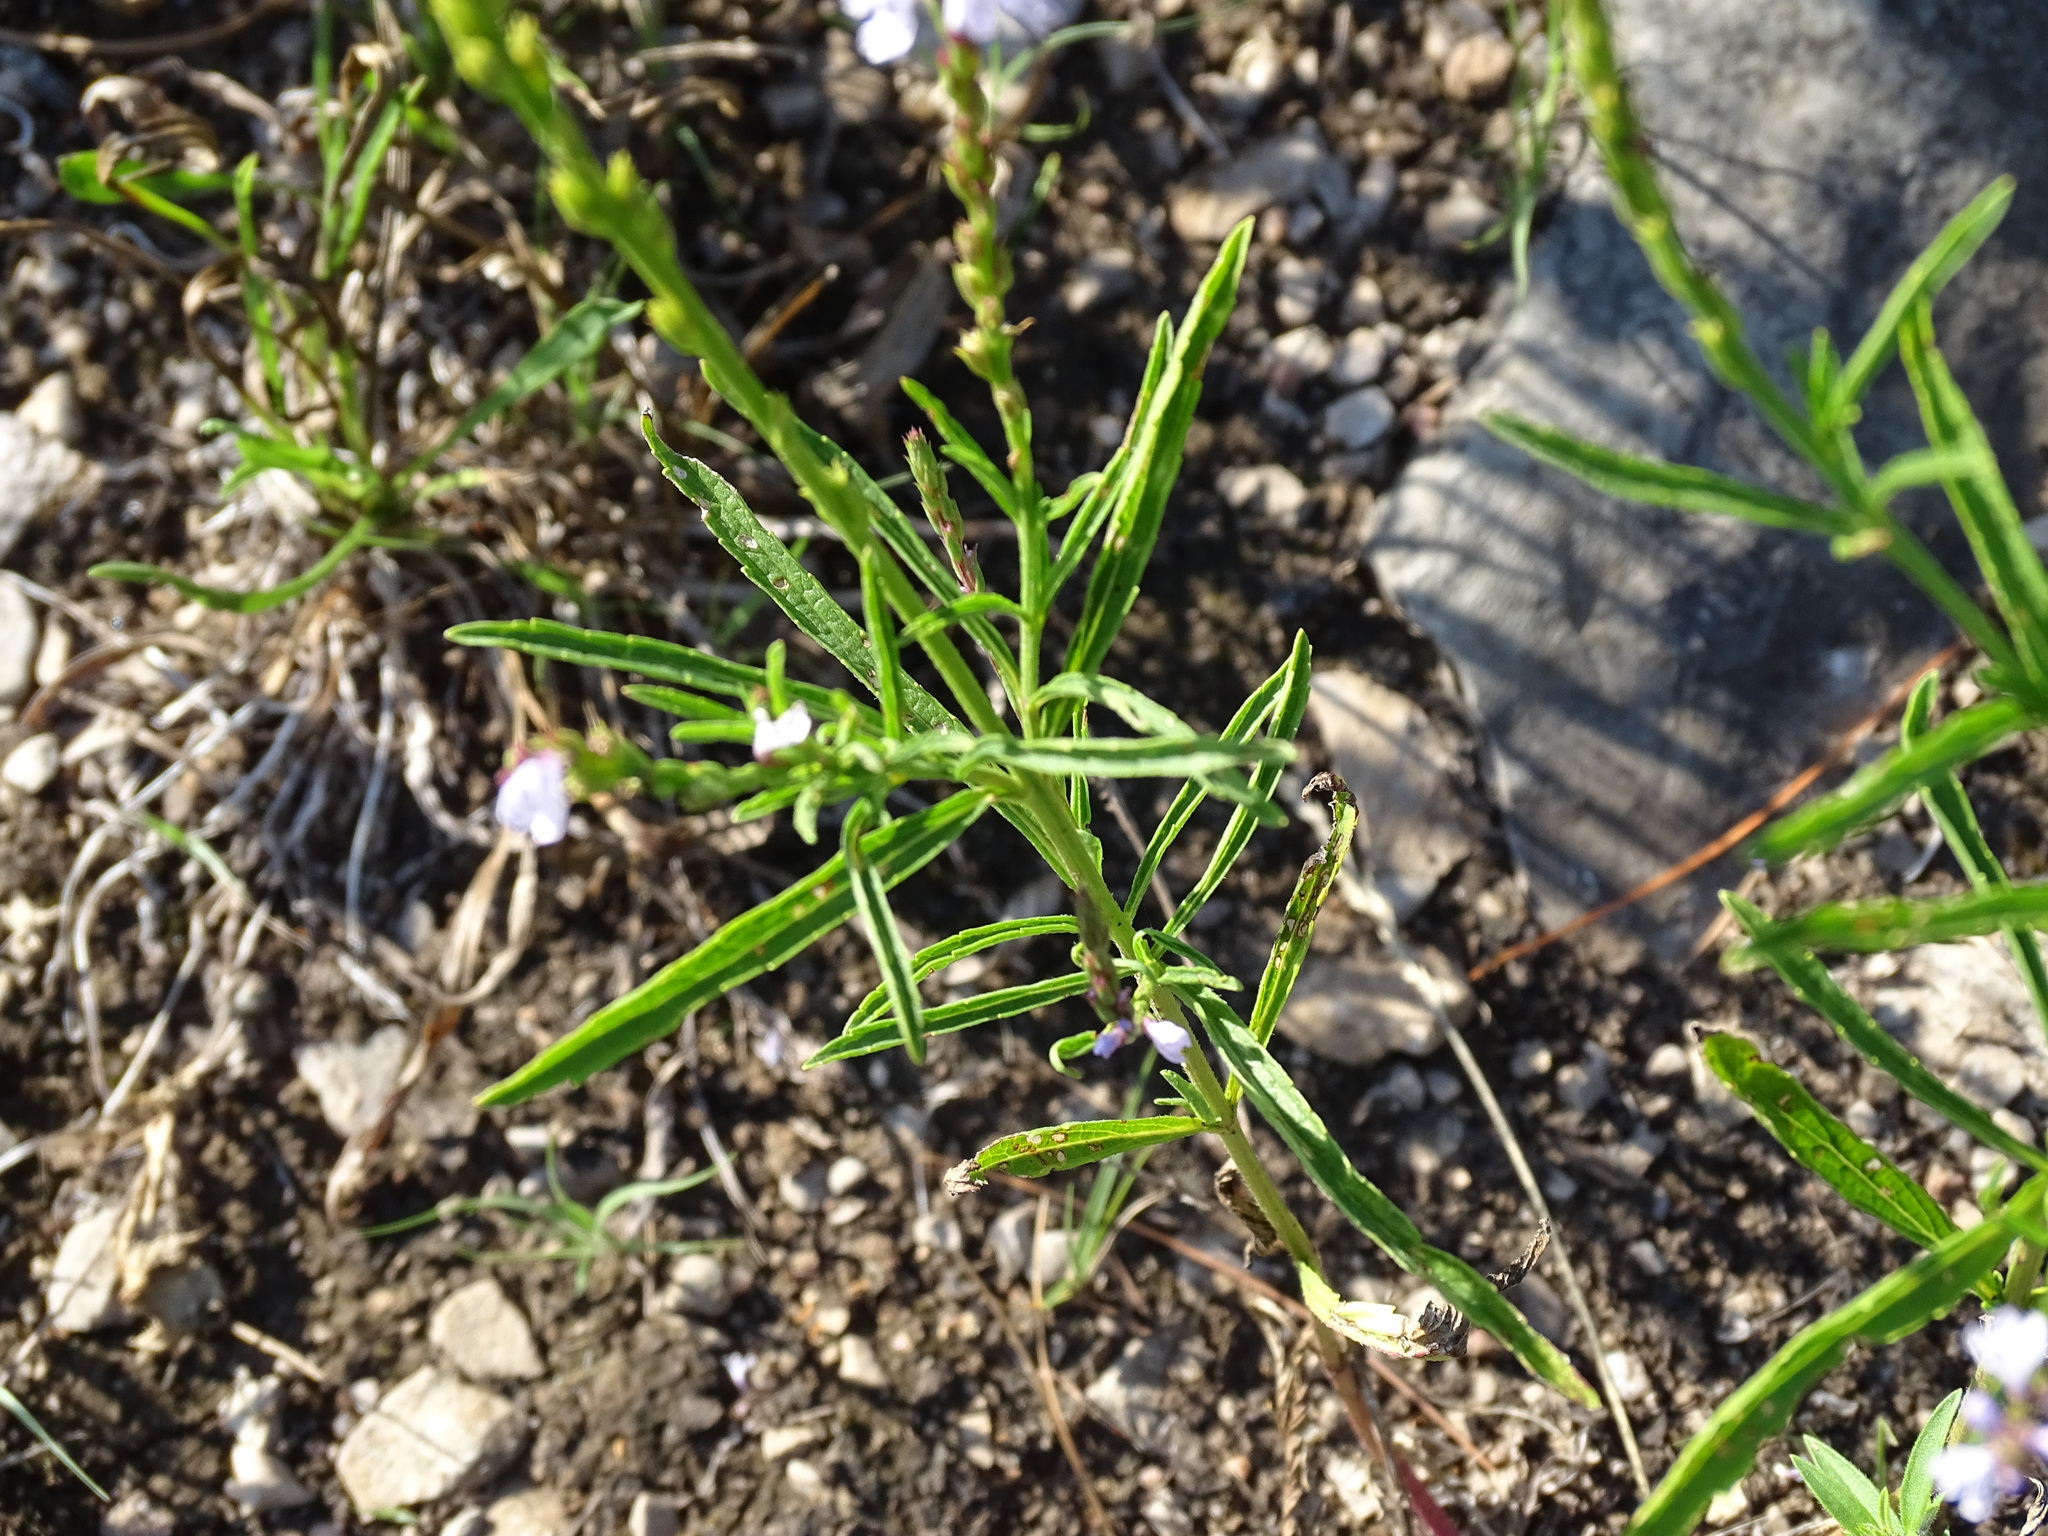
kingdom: Plantae
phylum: Tracheophyta
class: Magnoliopsida
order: Lamiales
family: Verbenaceae
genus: Verbena
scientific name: Verbena simplex
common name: Narrow-leaf vervain
